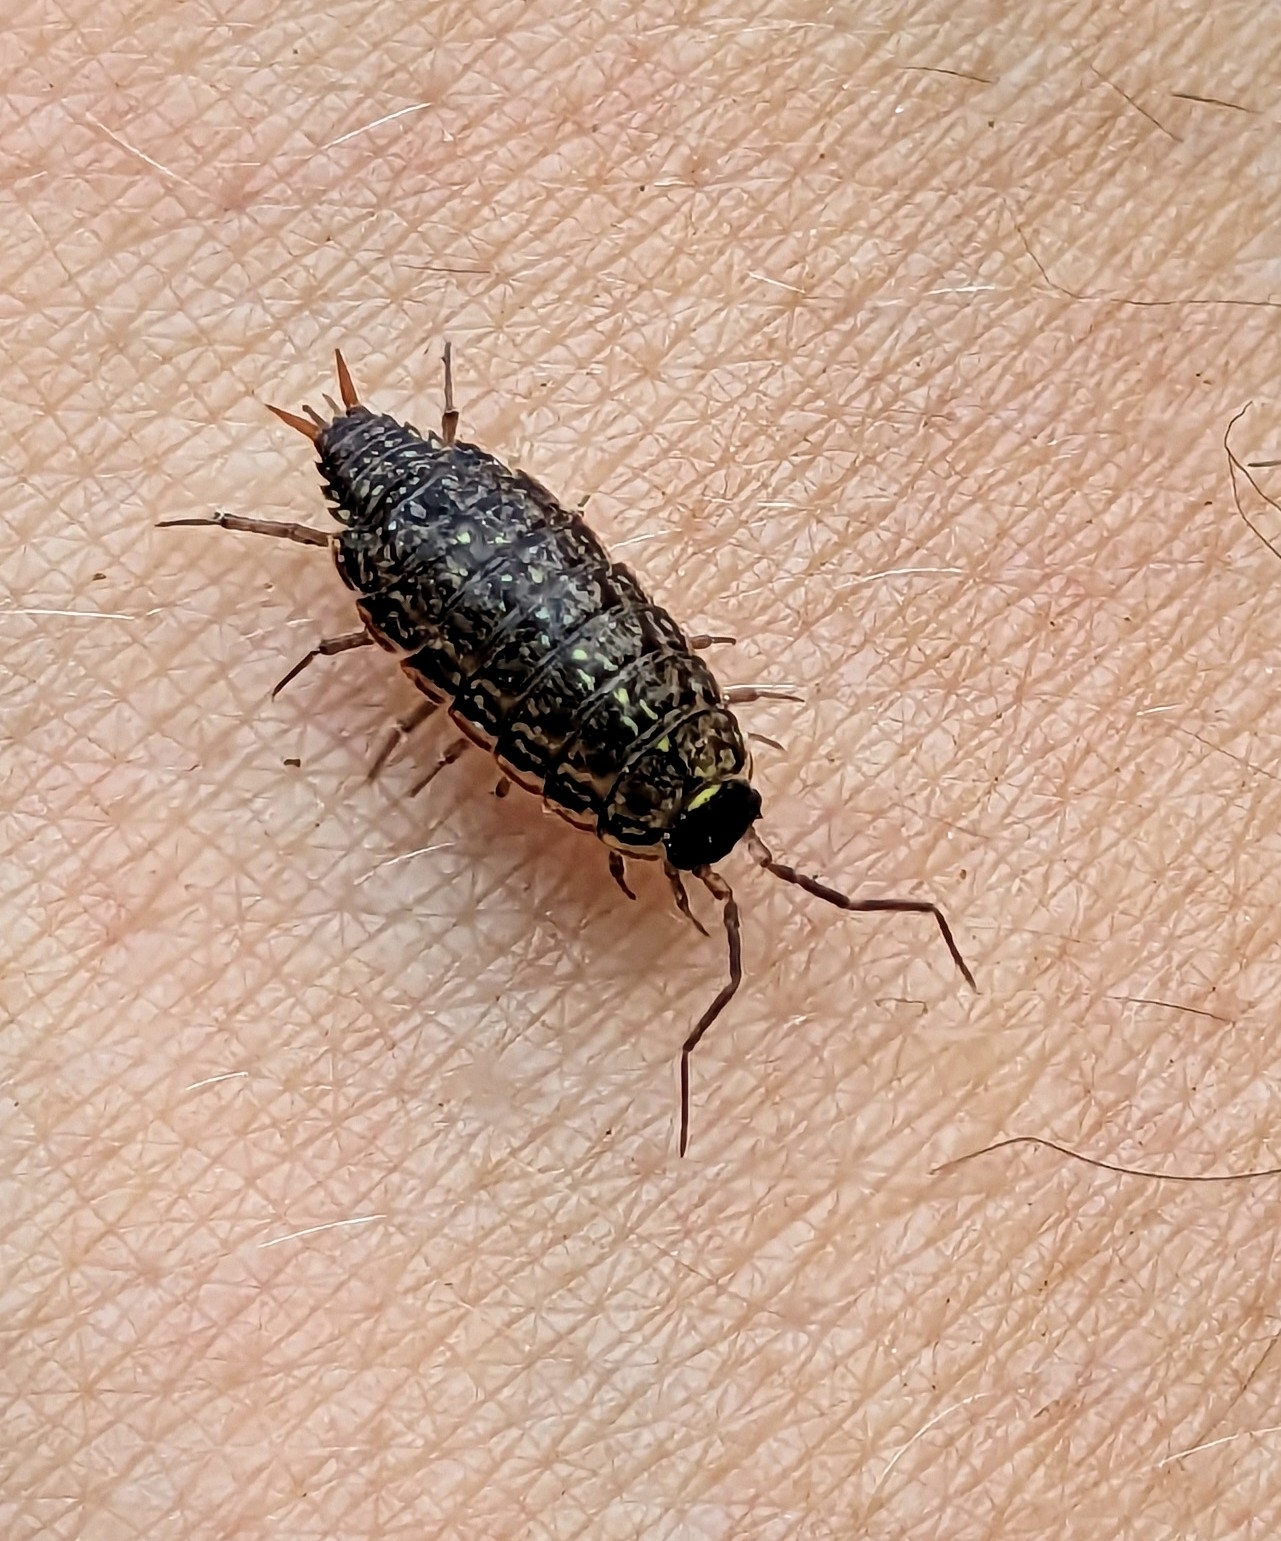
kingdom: Animalia
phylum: Arthropoda
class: Malacostraca
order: Isopoda
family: Philosciidae
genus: Philoscia
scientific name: Philoscia muscorum
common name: Common striped woodlouse
